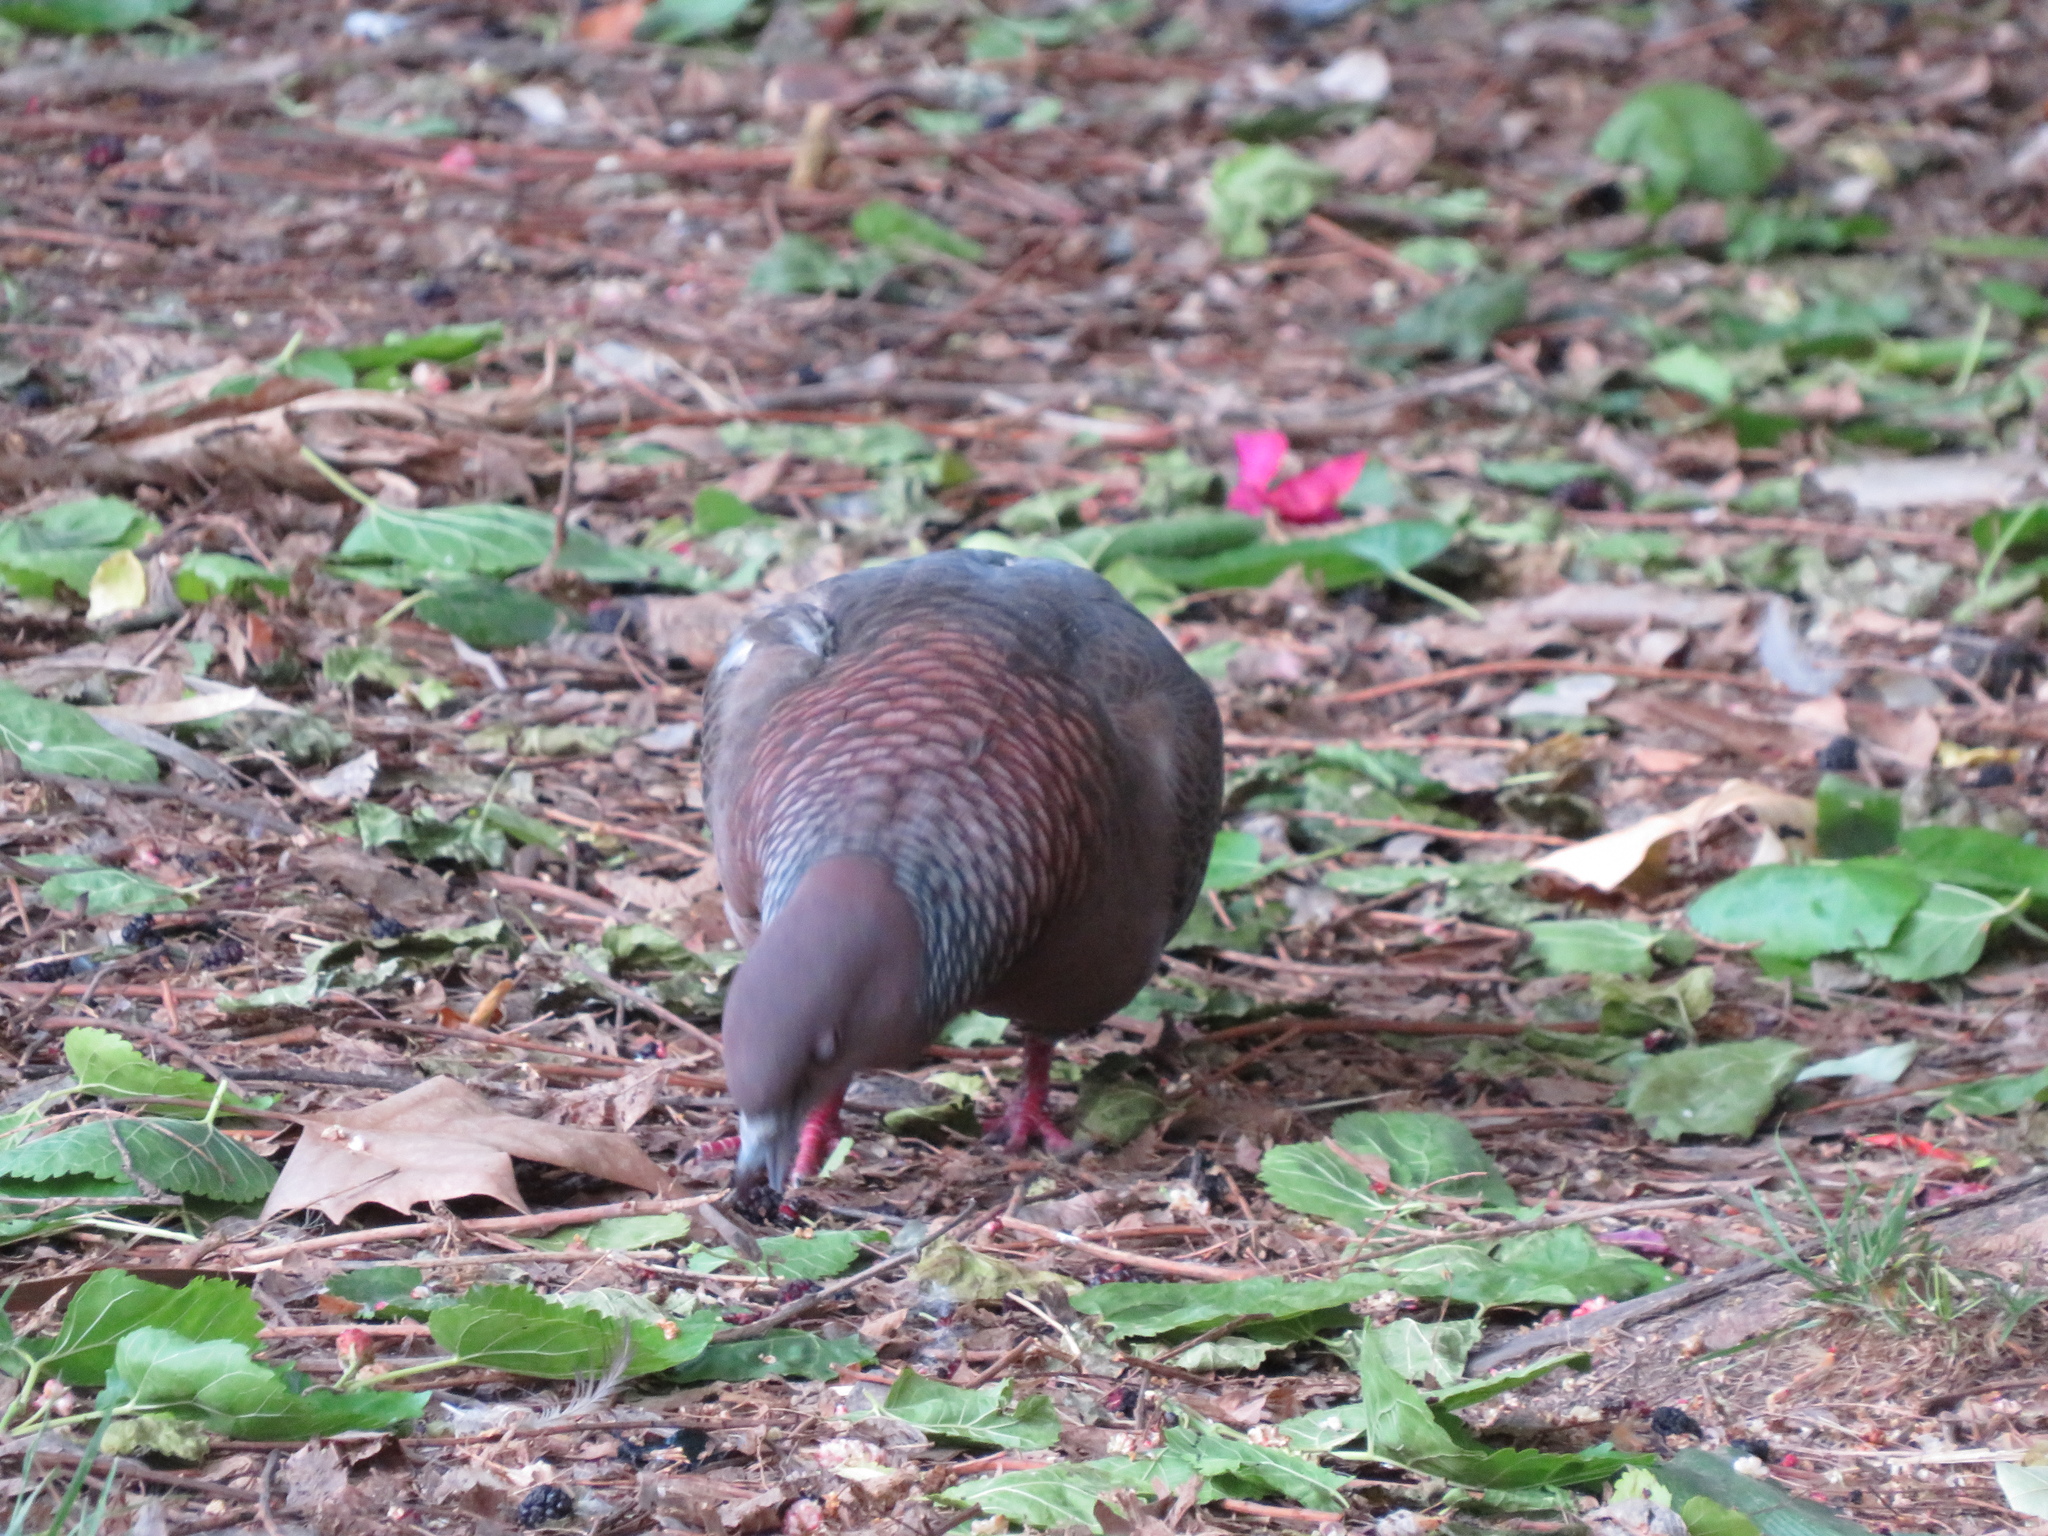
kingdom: Animalia
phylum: Chordata
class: Aves
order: Columbiformes
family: Columbidae
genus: Patagioenas
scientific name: Patagioenas picazuro
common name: Picazuro pigeon
